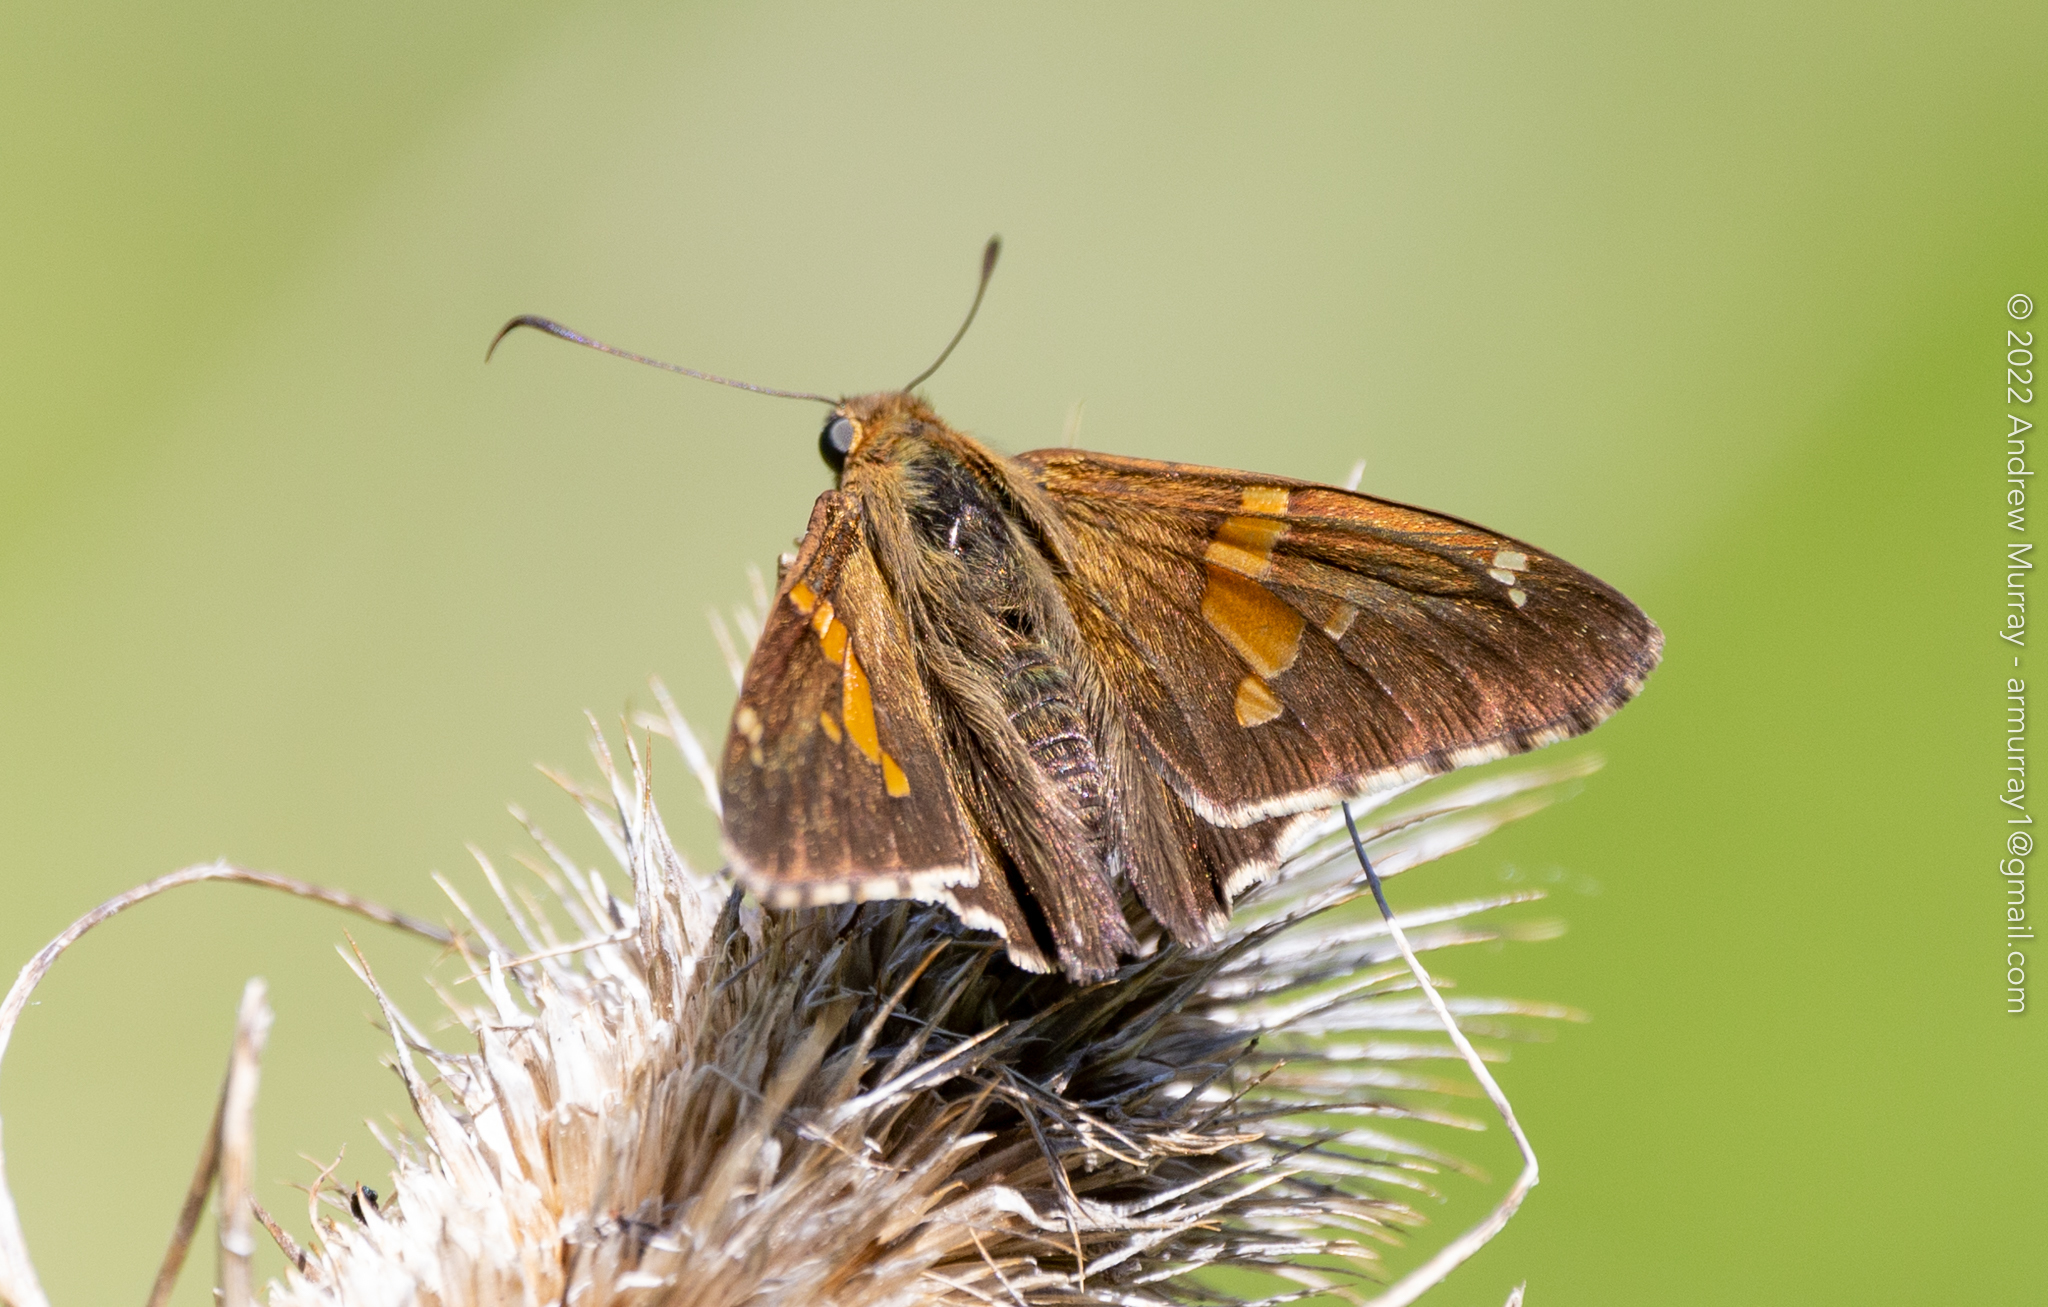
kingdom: Animalia
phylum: Arthropoda
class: Insecta
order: Lepidoptera
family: Hesperiidae
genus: Epargyreus
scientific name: Epargyreus clarus
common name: Silver-spotted skipper
